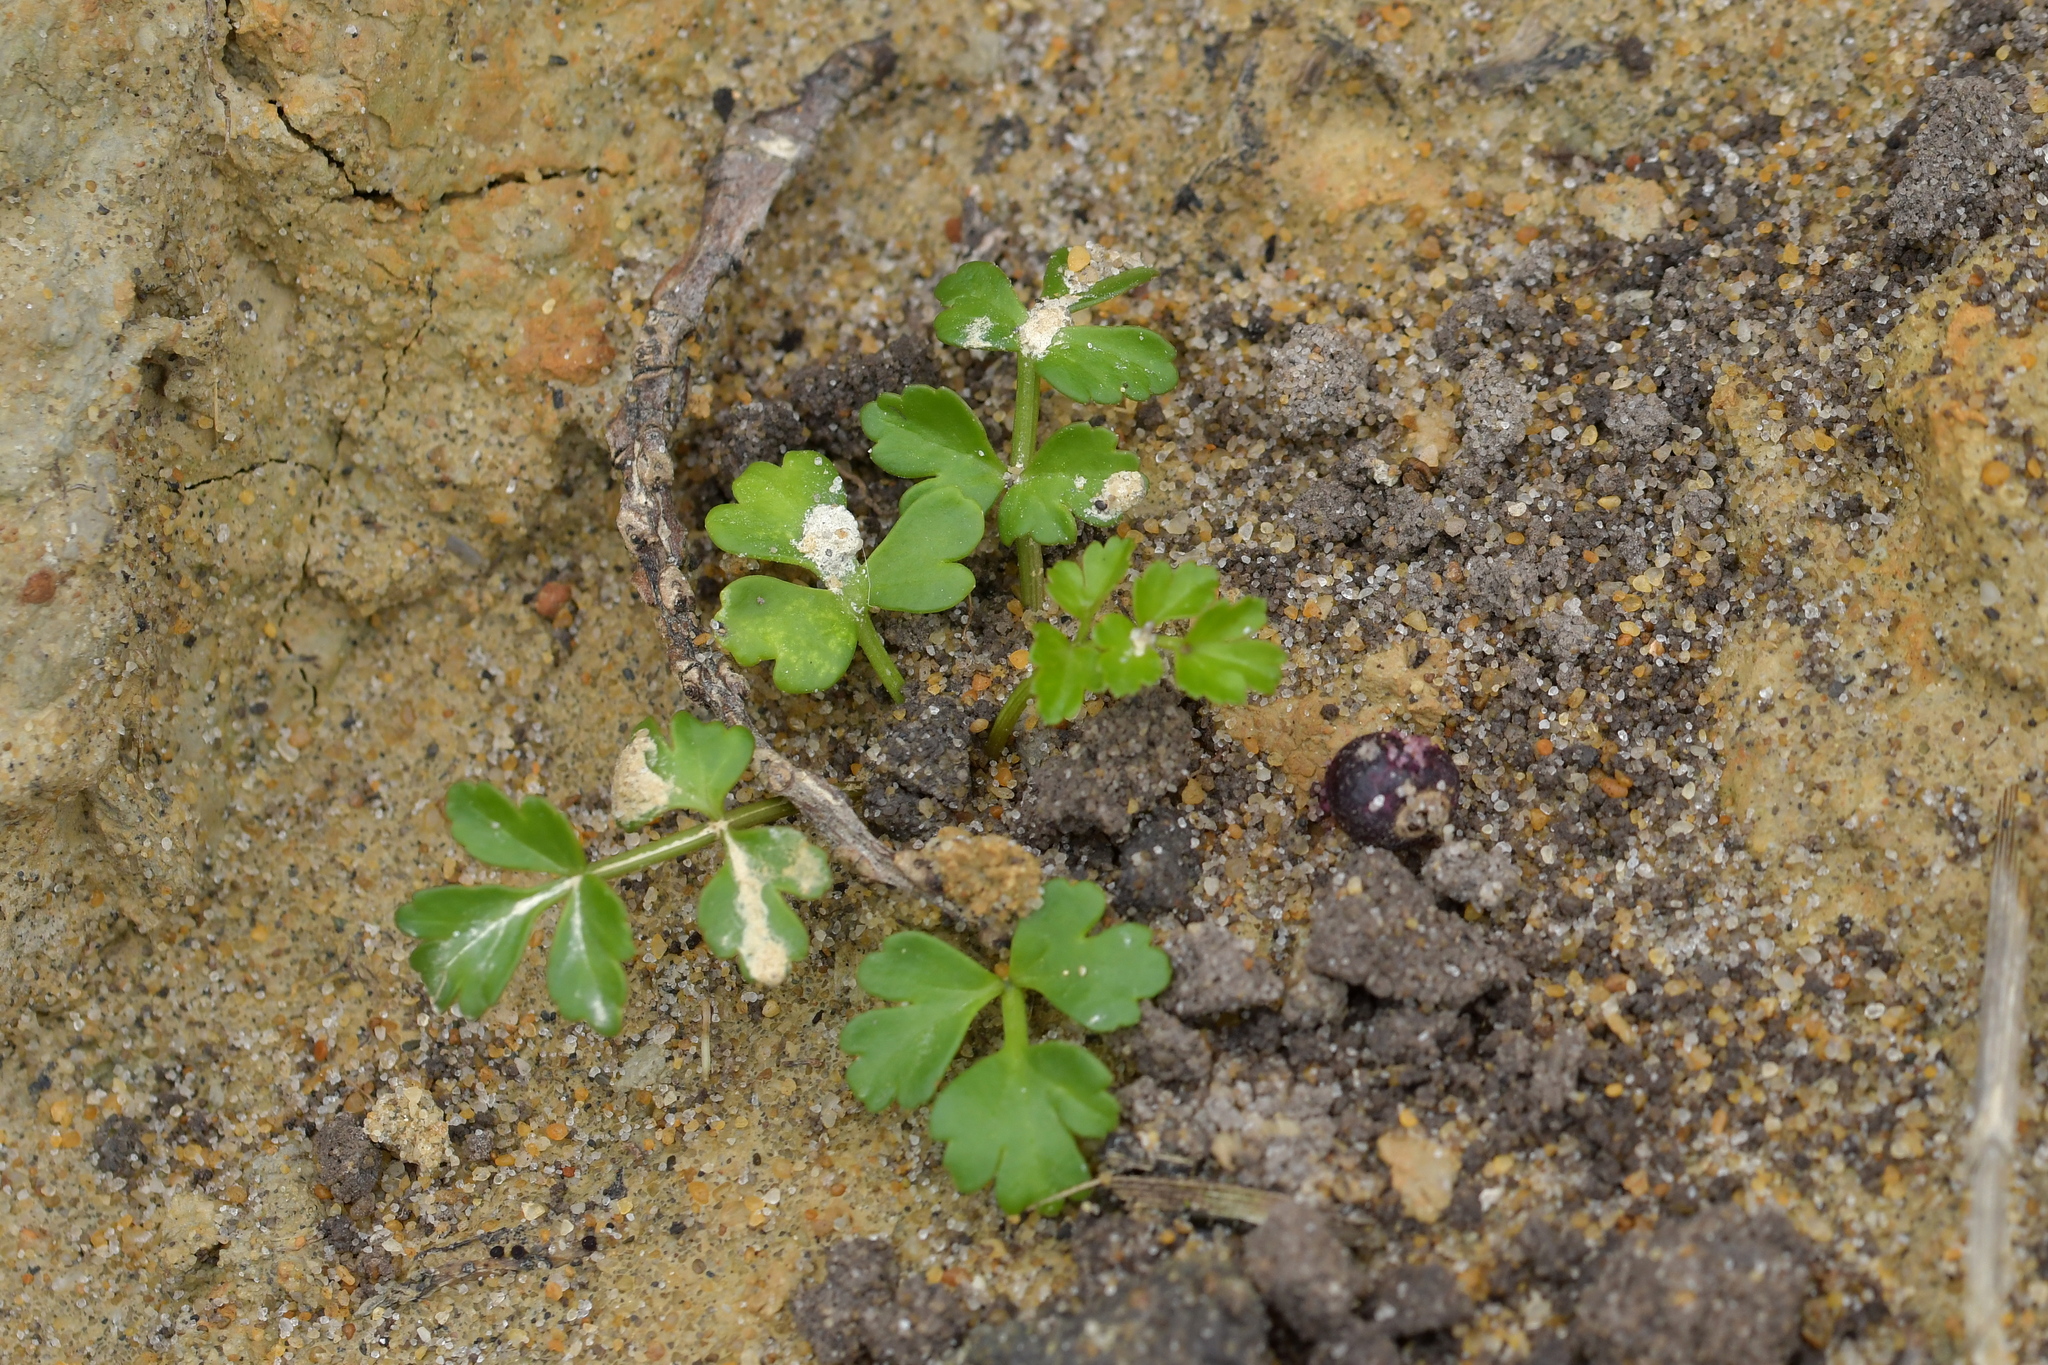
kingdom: Plantae
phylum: Tracheophyta
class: Magnoliopsida
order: Apiales
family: Apiaceae
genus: Apium
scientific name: Apium prostratum
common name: Prostrate marshwort
